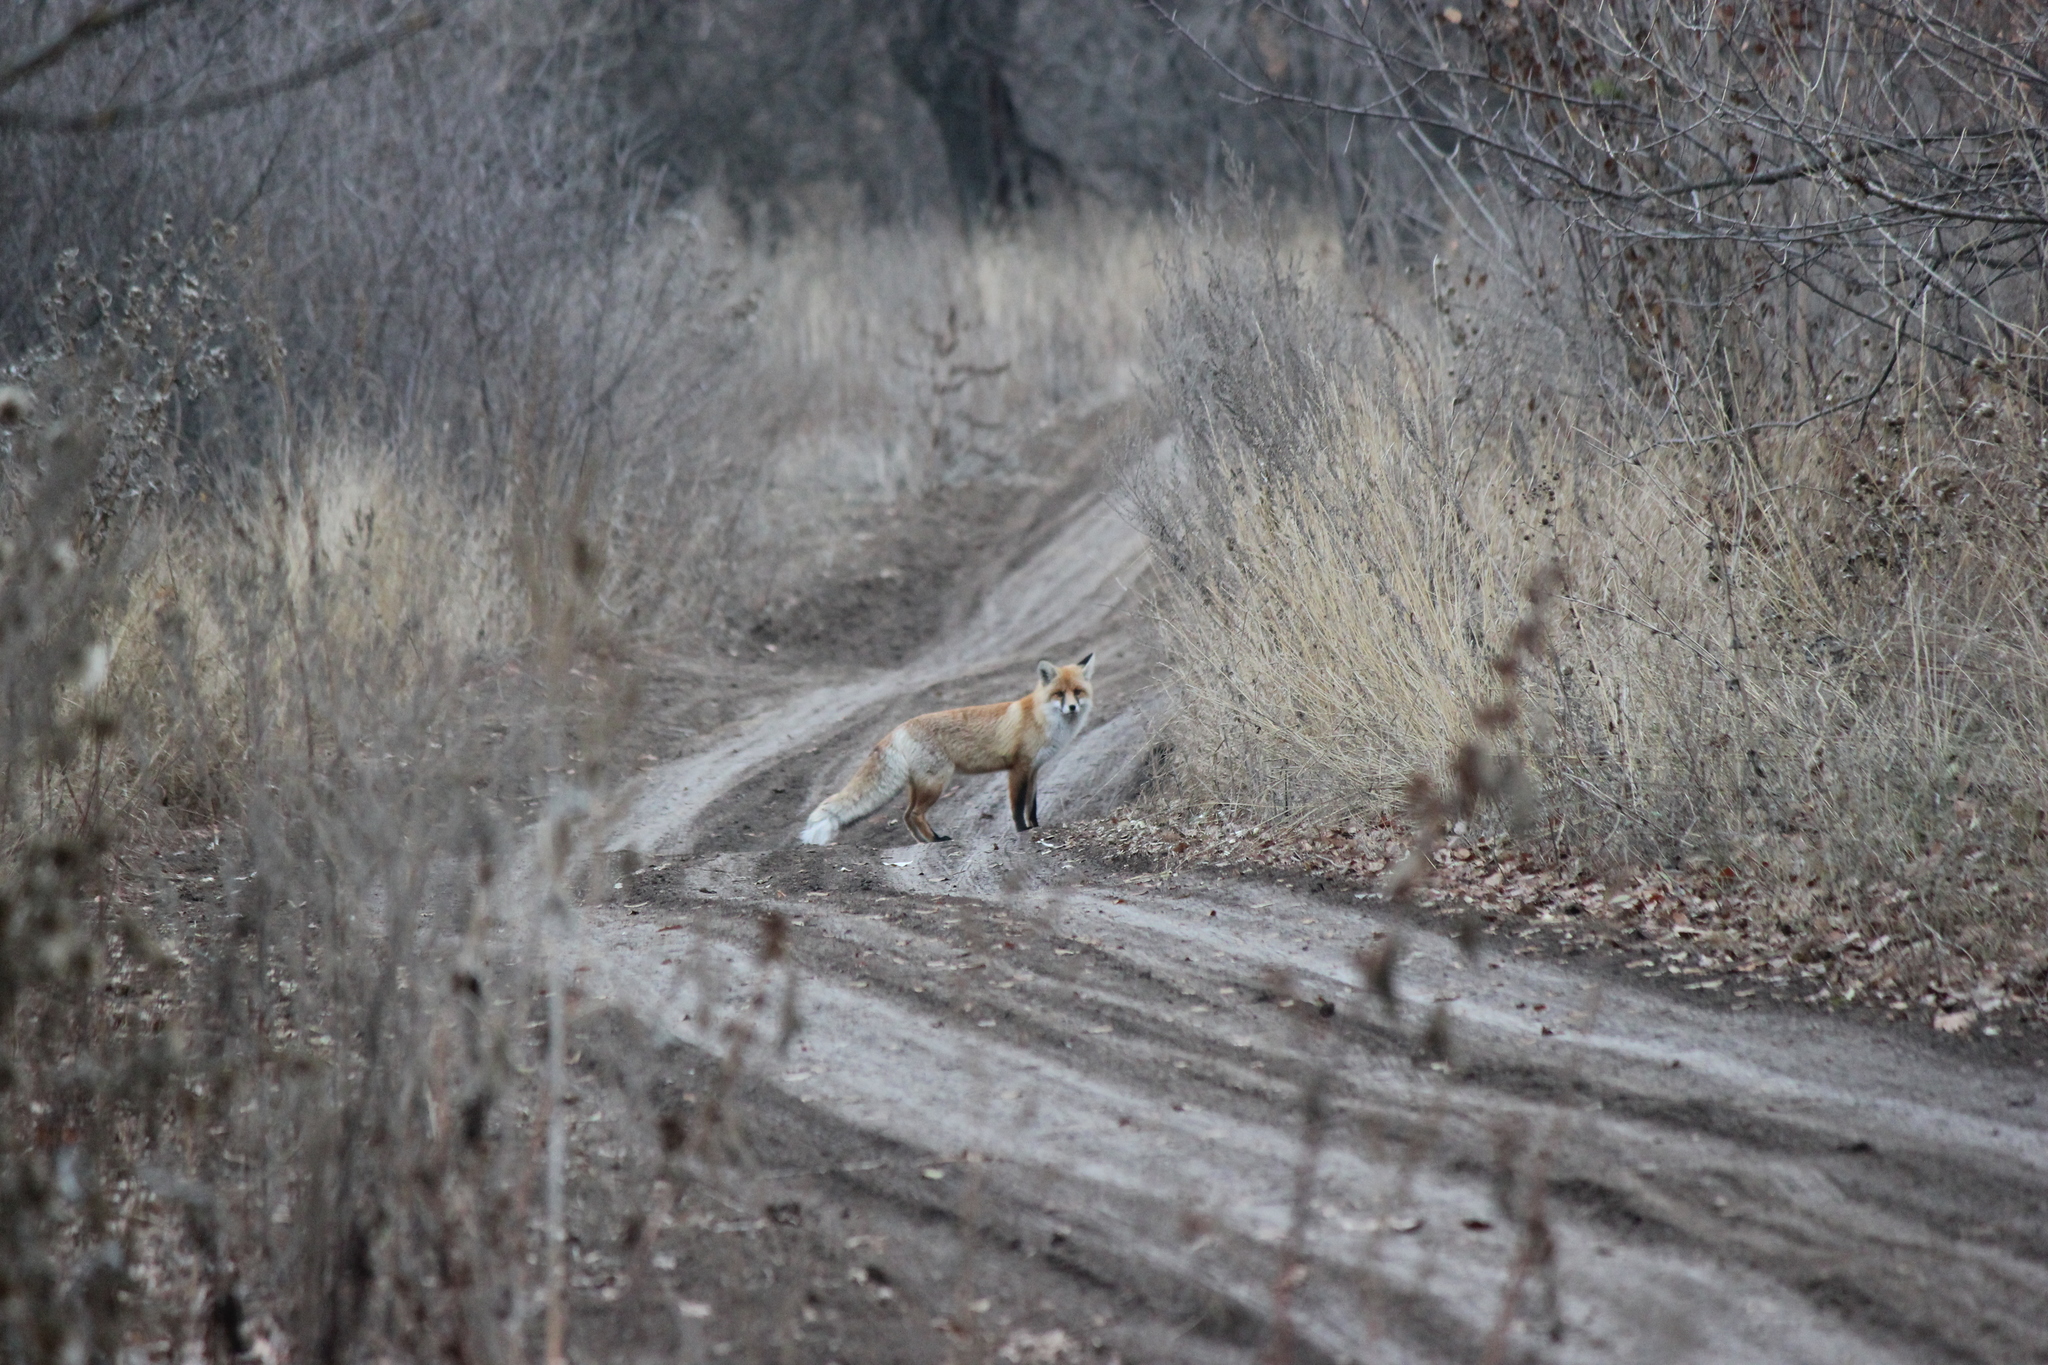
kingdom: Animalia
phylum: Chordata
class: Mammalia
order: Carnivora
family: Canidae
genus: Vulpes
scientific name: Vulpes vulpes
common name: Red fox
